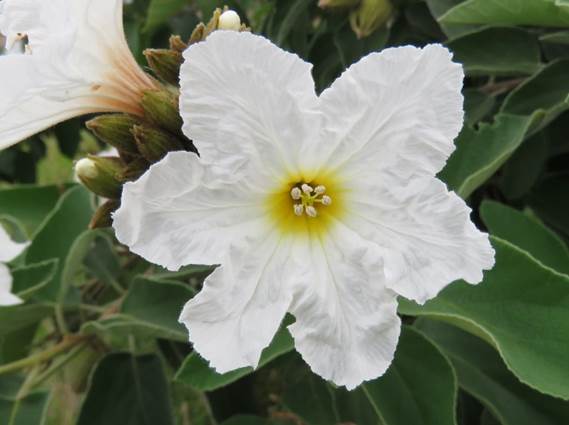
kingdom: Plantae
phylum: Tracheophyta
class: Magnoliopsida
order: Boraginales
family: Cordiaceae
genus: Cordia
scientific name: Cordia boissieri
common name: Mexican-olive
